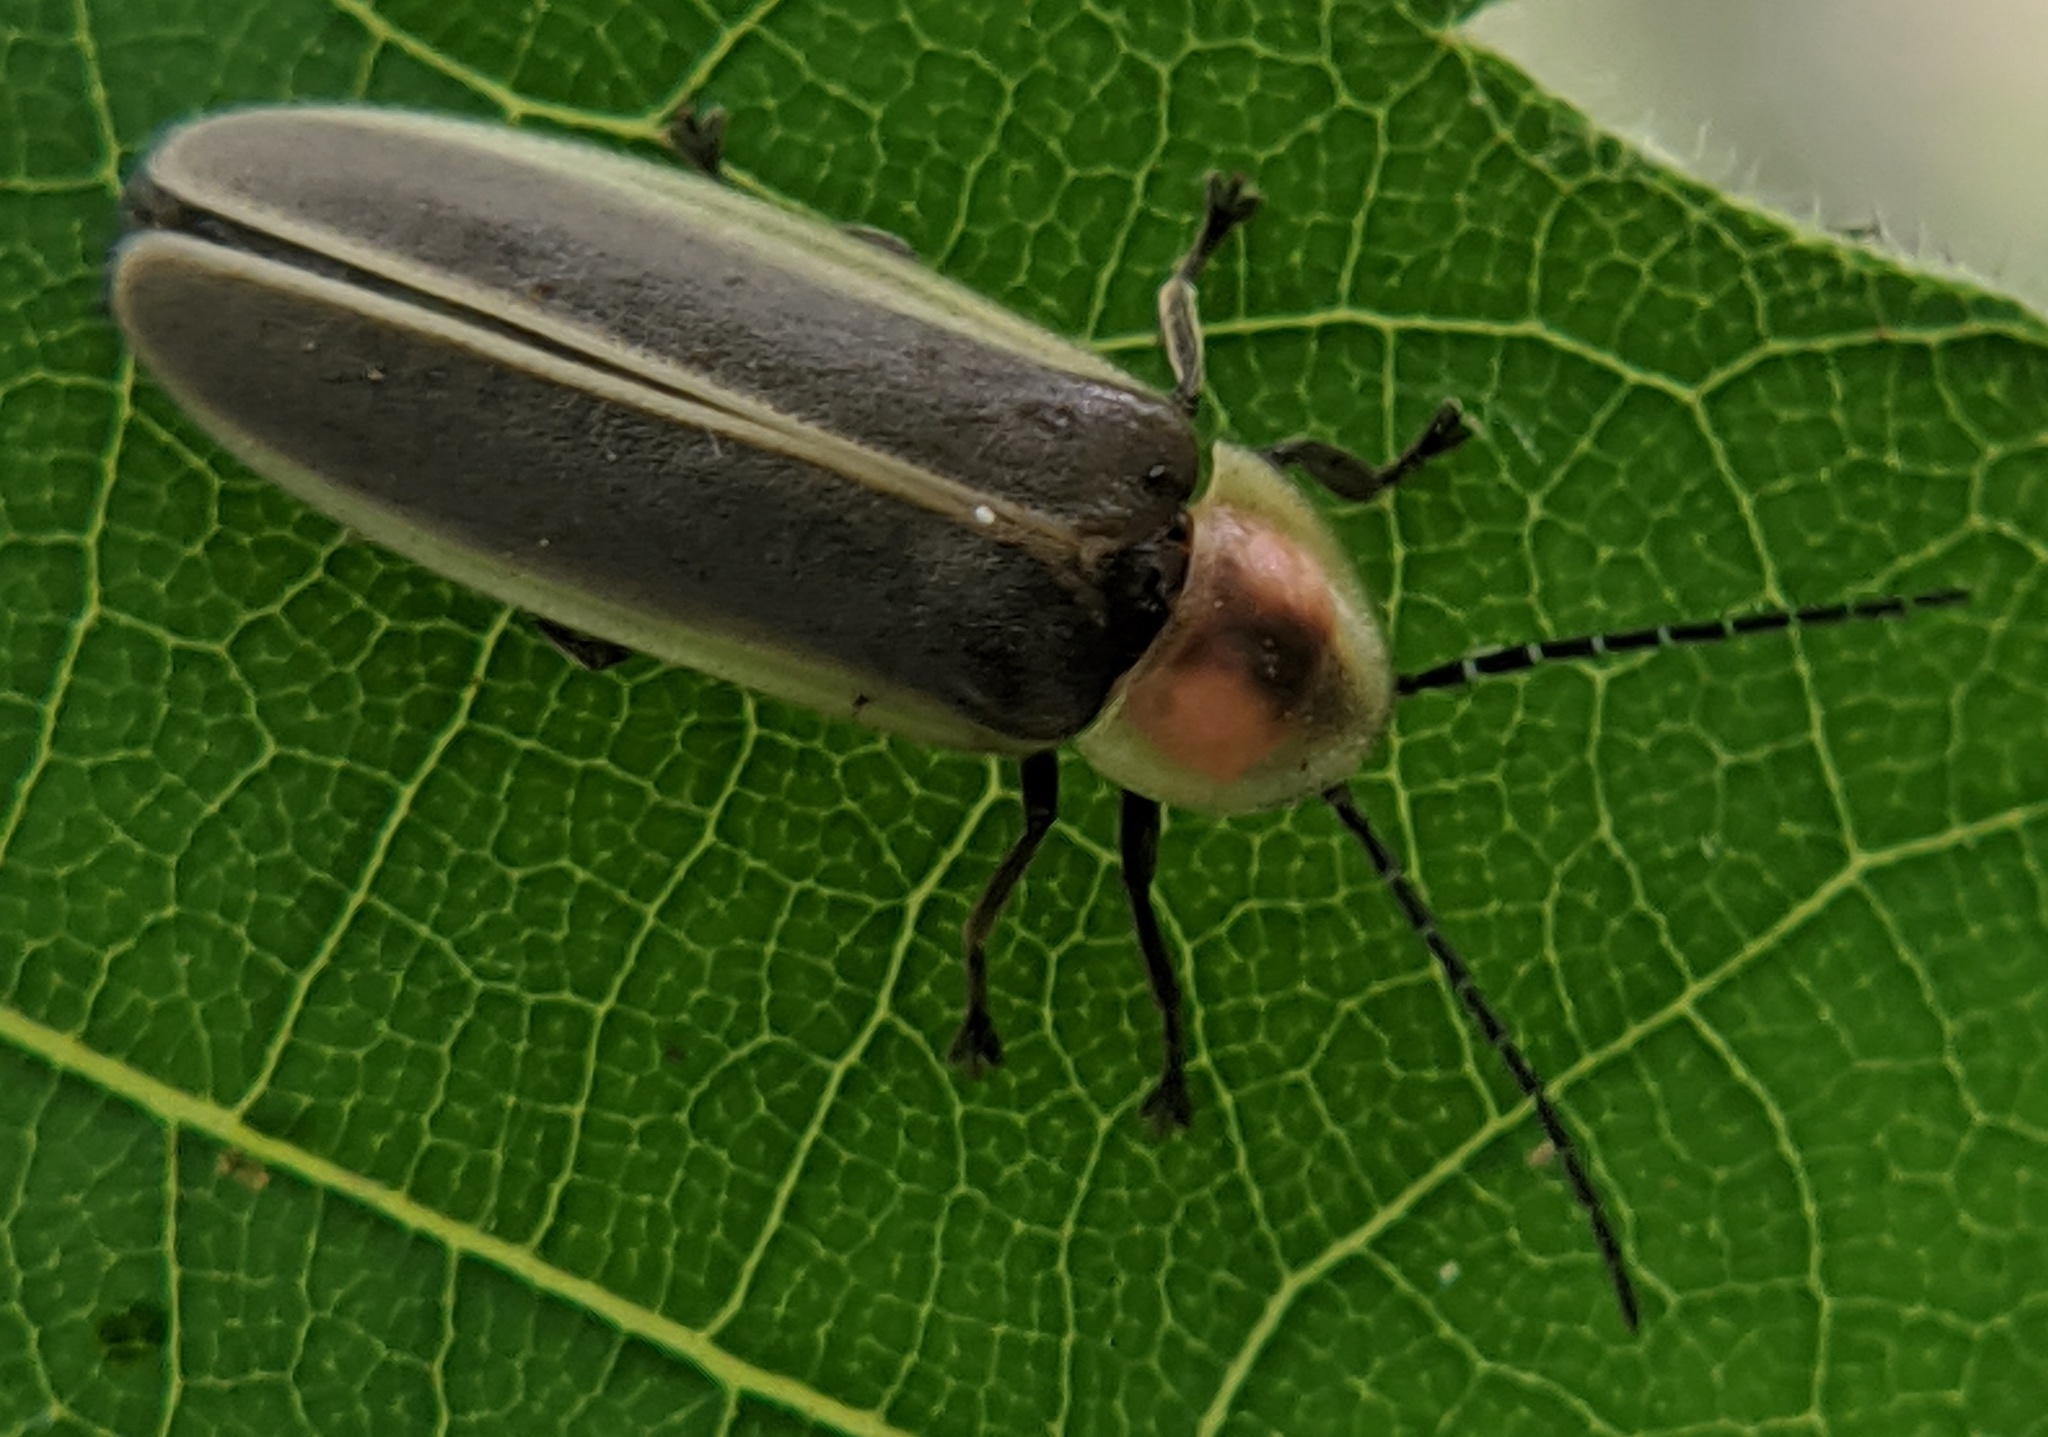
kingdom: Animalia
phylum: Arthropoda
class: Insecta
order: Coleoptera
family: Lampyridae
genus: Photinus
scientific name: Photinus pyralis
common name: Big dipper firefly
